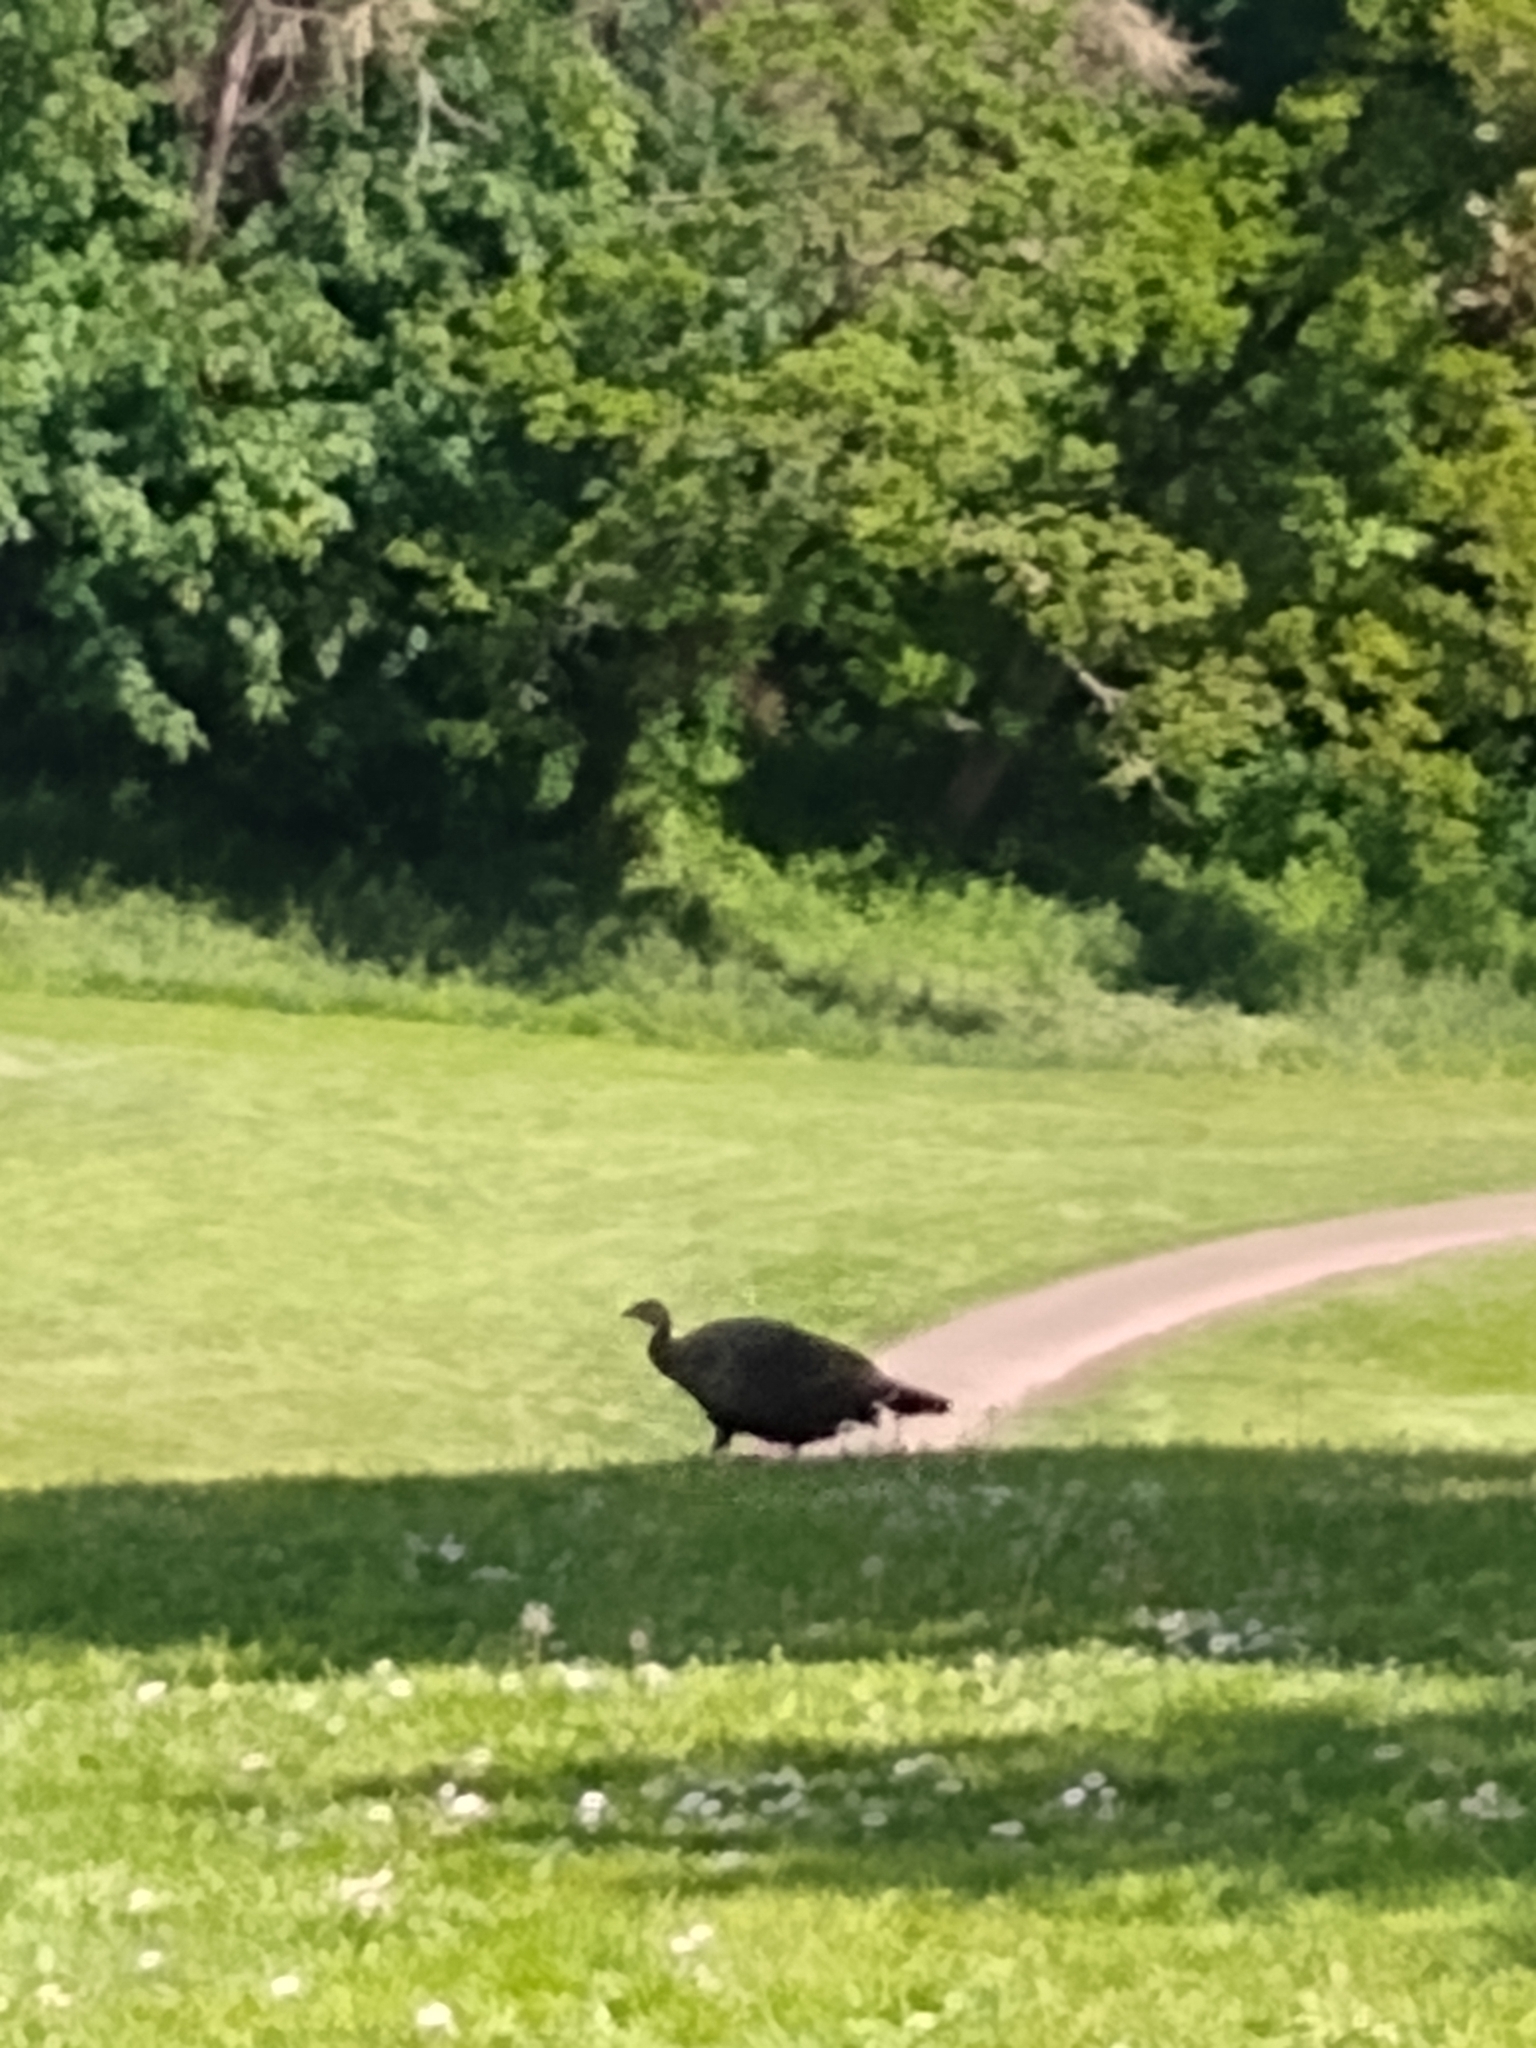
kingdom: Animalia
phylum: Chordata
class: Aves
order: Galliformes
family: Phasianidae
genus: Meleagris
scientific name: Meleagris gallopavo
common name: Wild turkey
